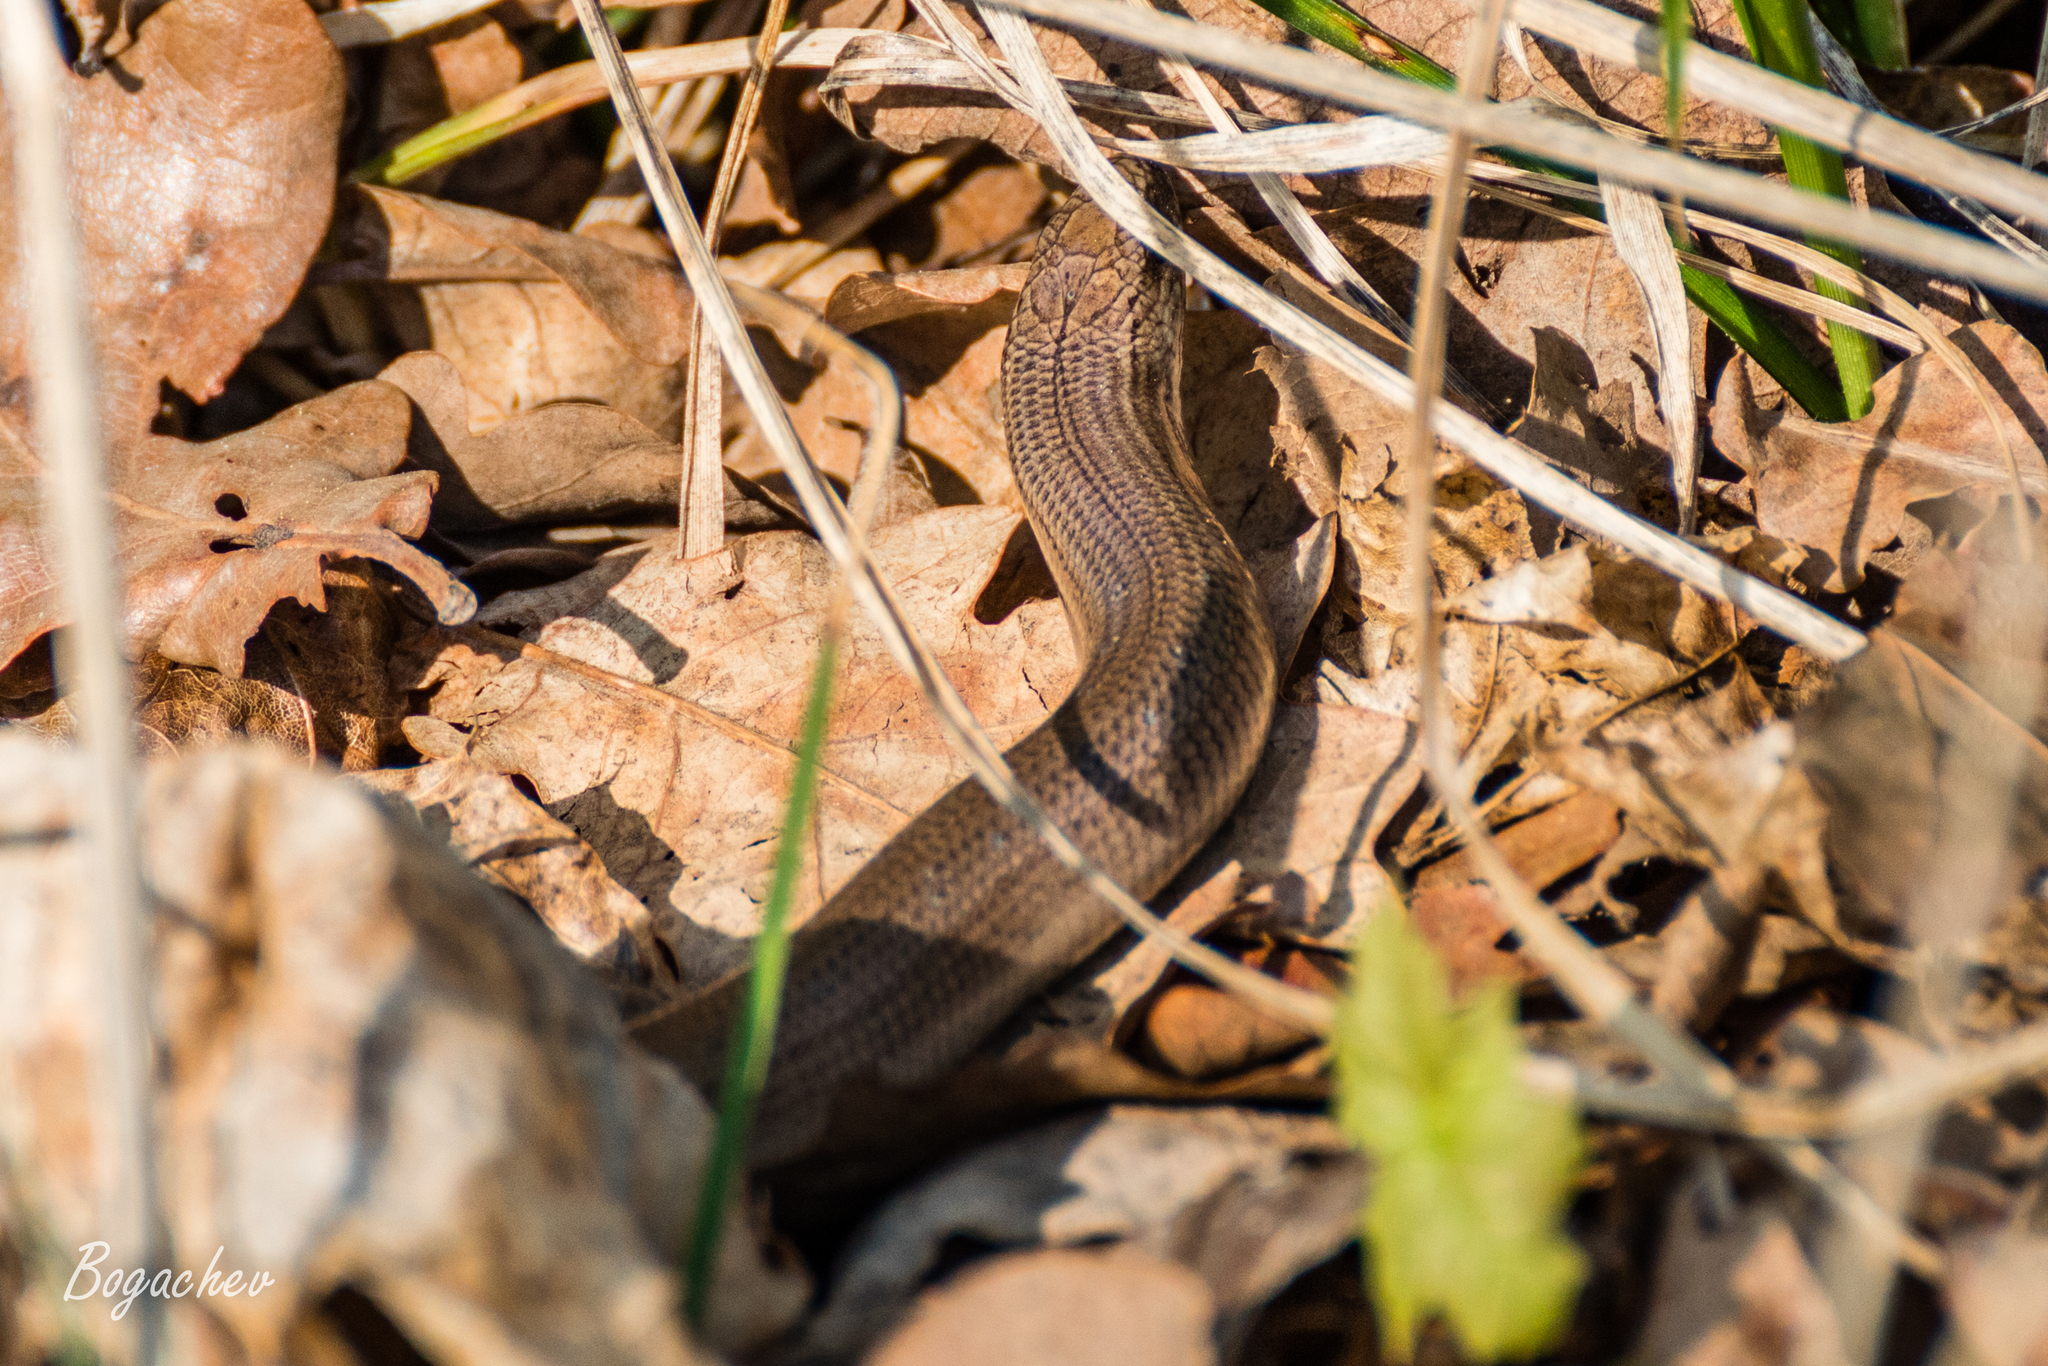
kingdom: Animalia
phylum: Chordata
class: Squamata
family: Anguidae
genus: Anguis
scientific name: Anguis colchica
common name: Slow worm
